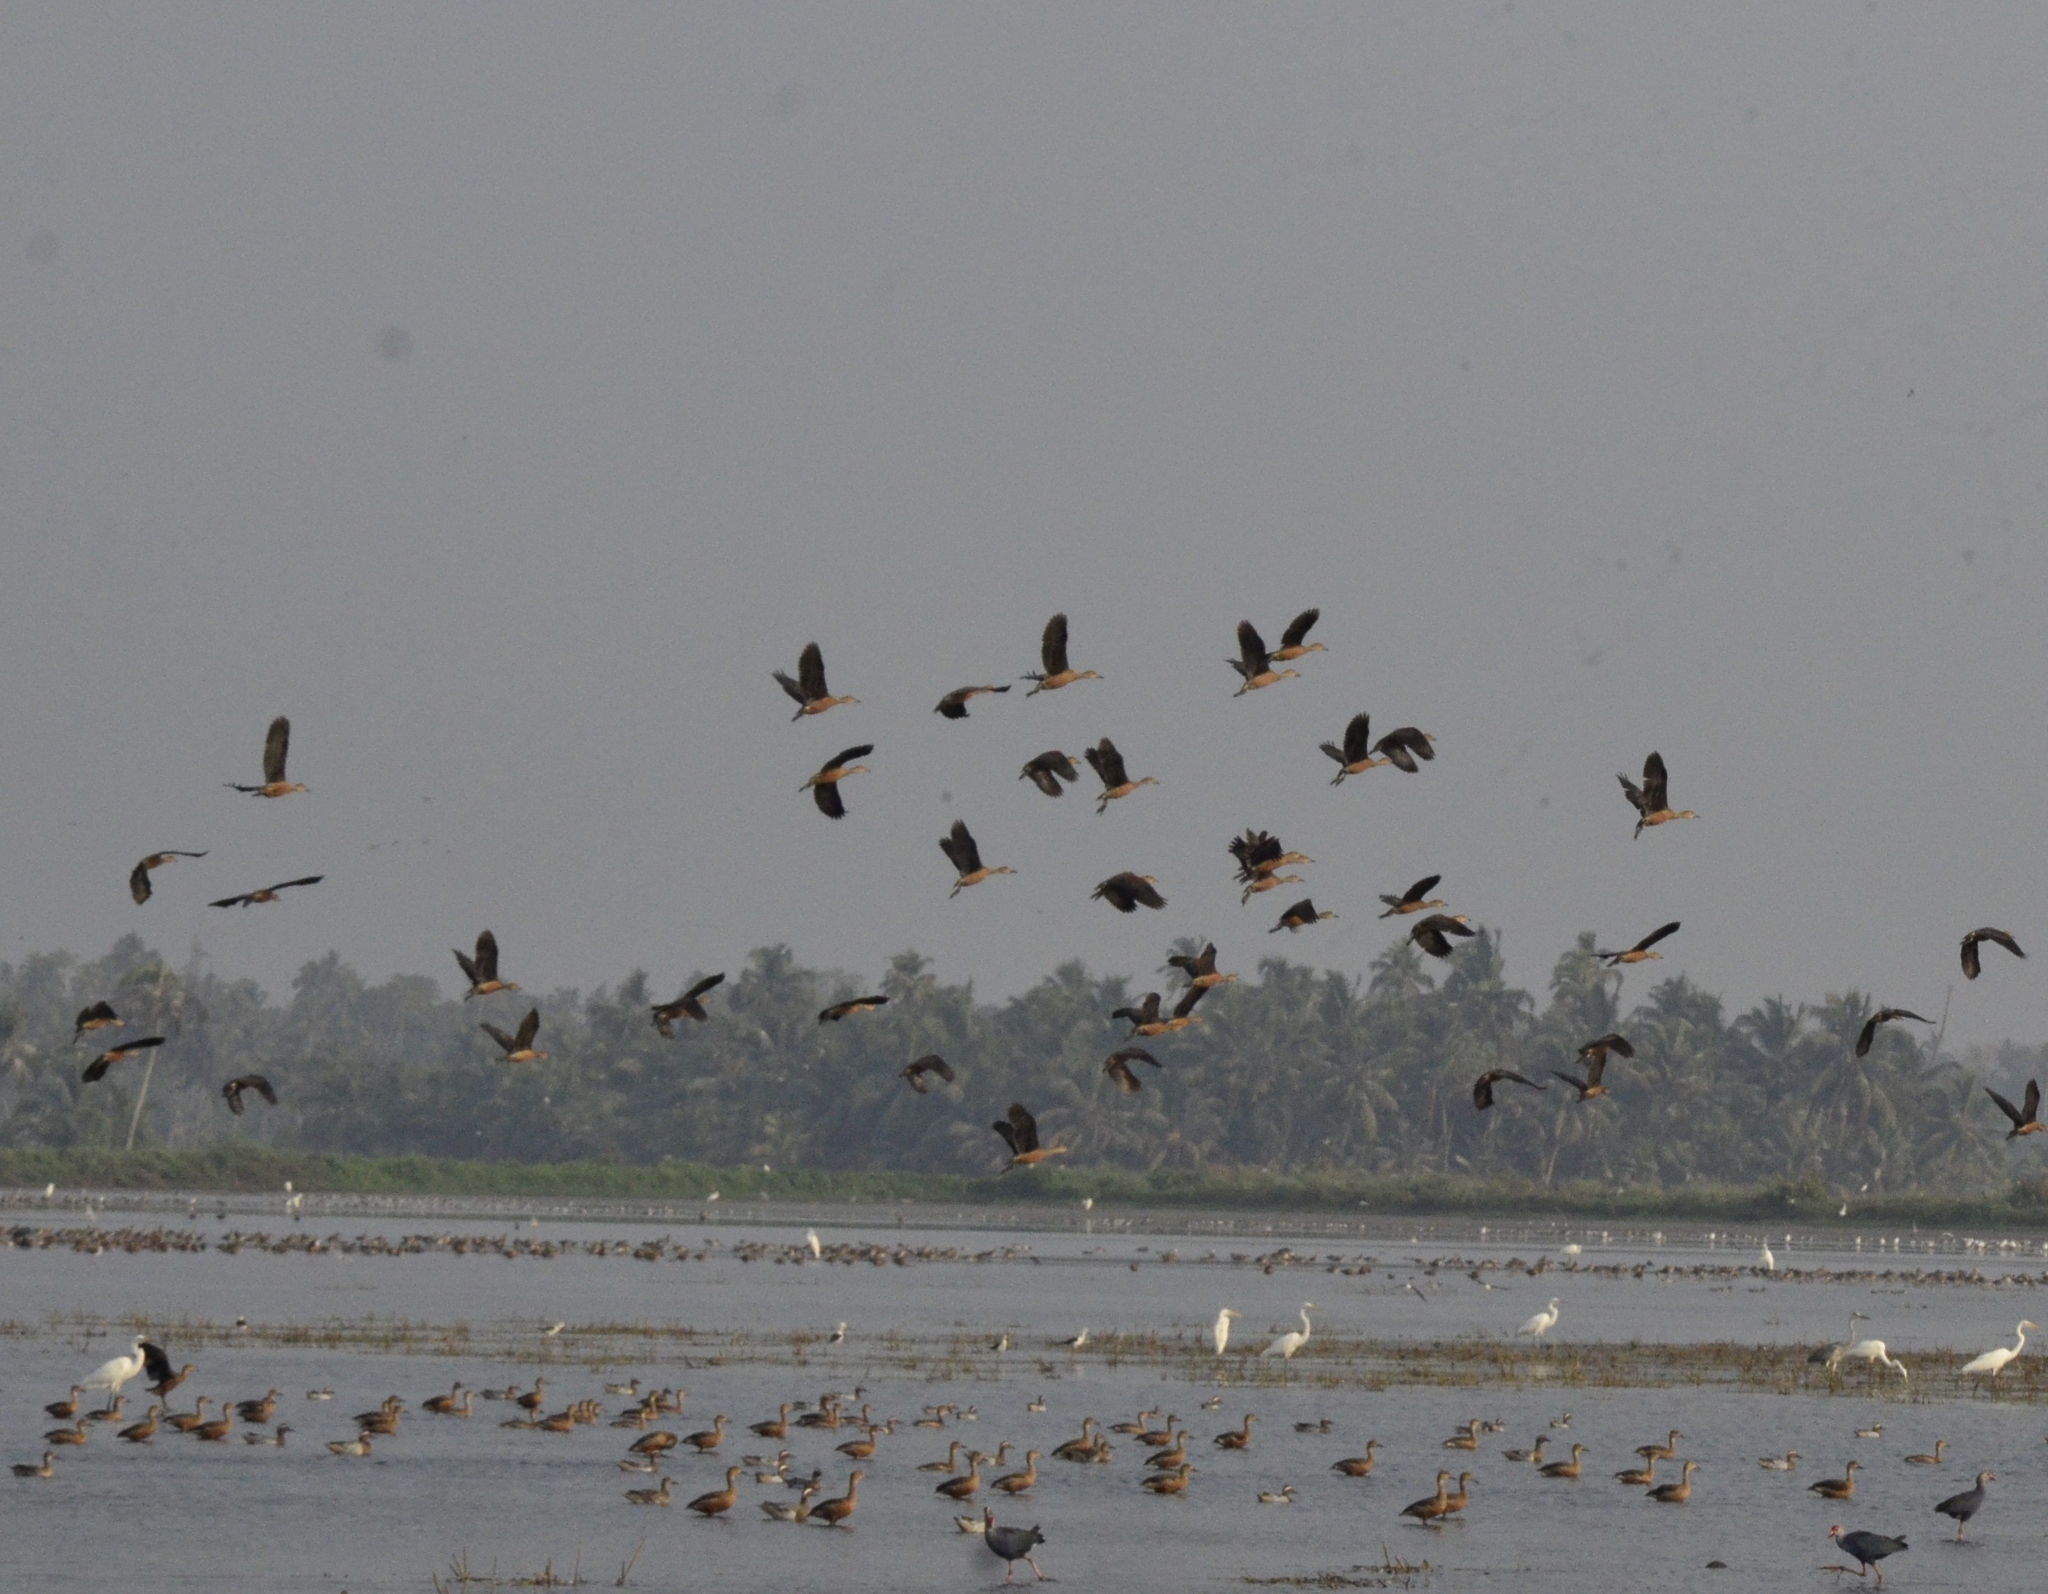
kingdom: Animalia
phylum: Chordata
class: Aves
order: Anseriformes
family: Anatidae
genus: Dendrocygna
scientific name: Dendrocygna javanica
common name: Lesser whistling-duck
